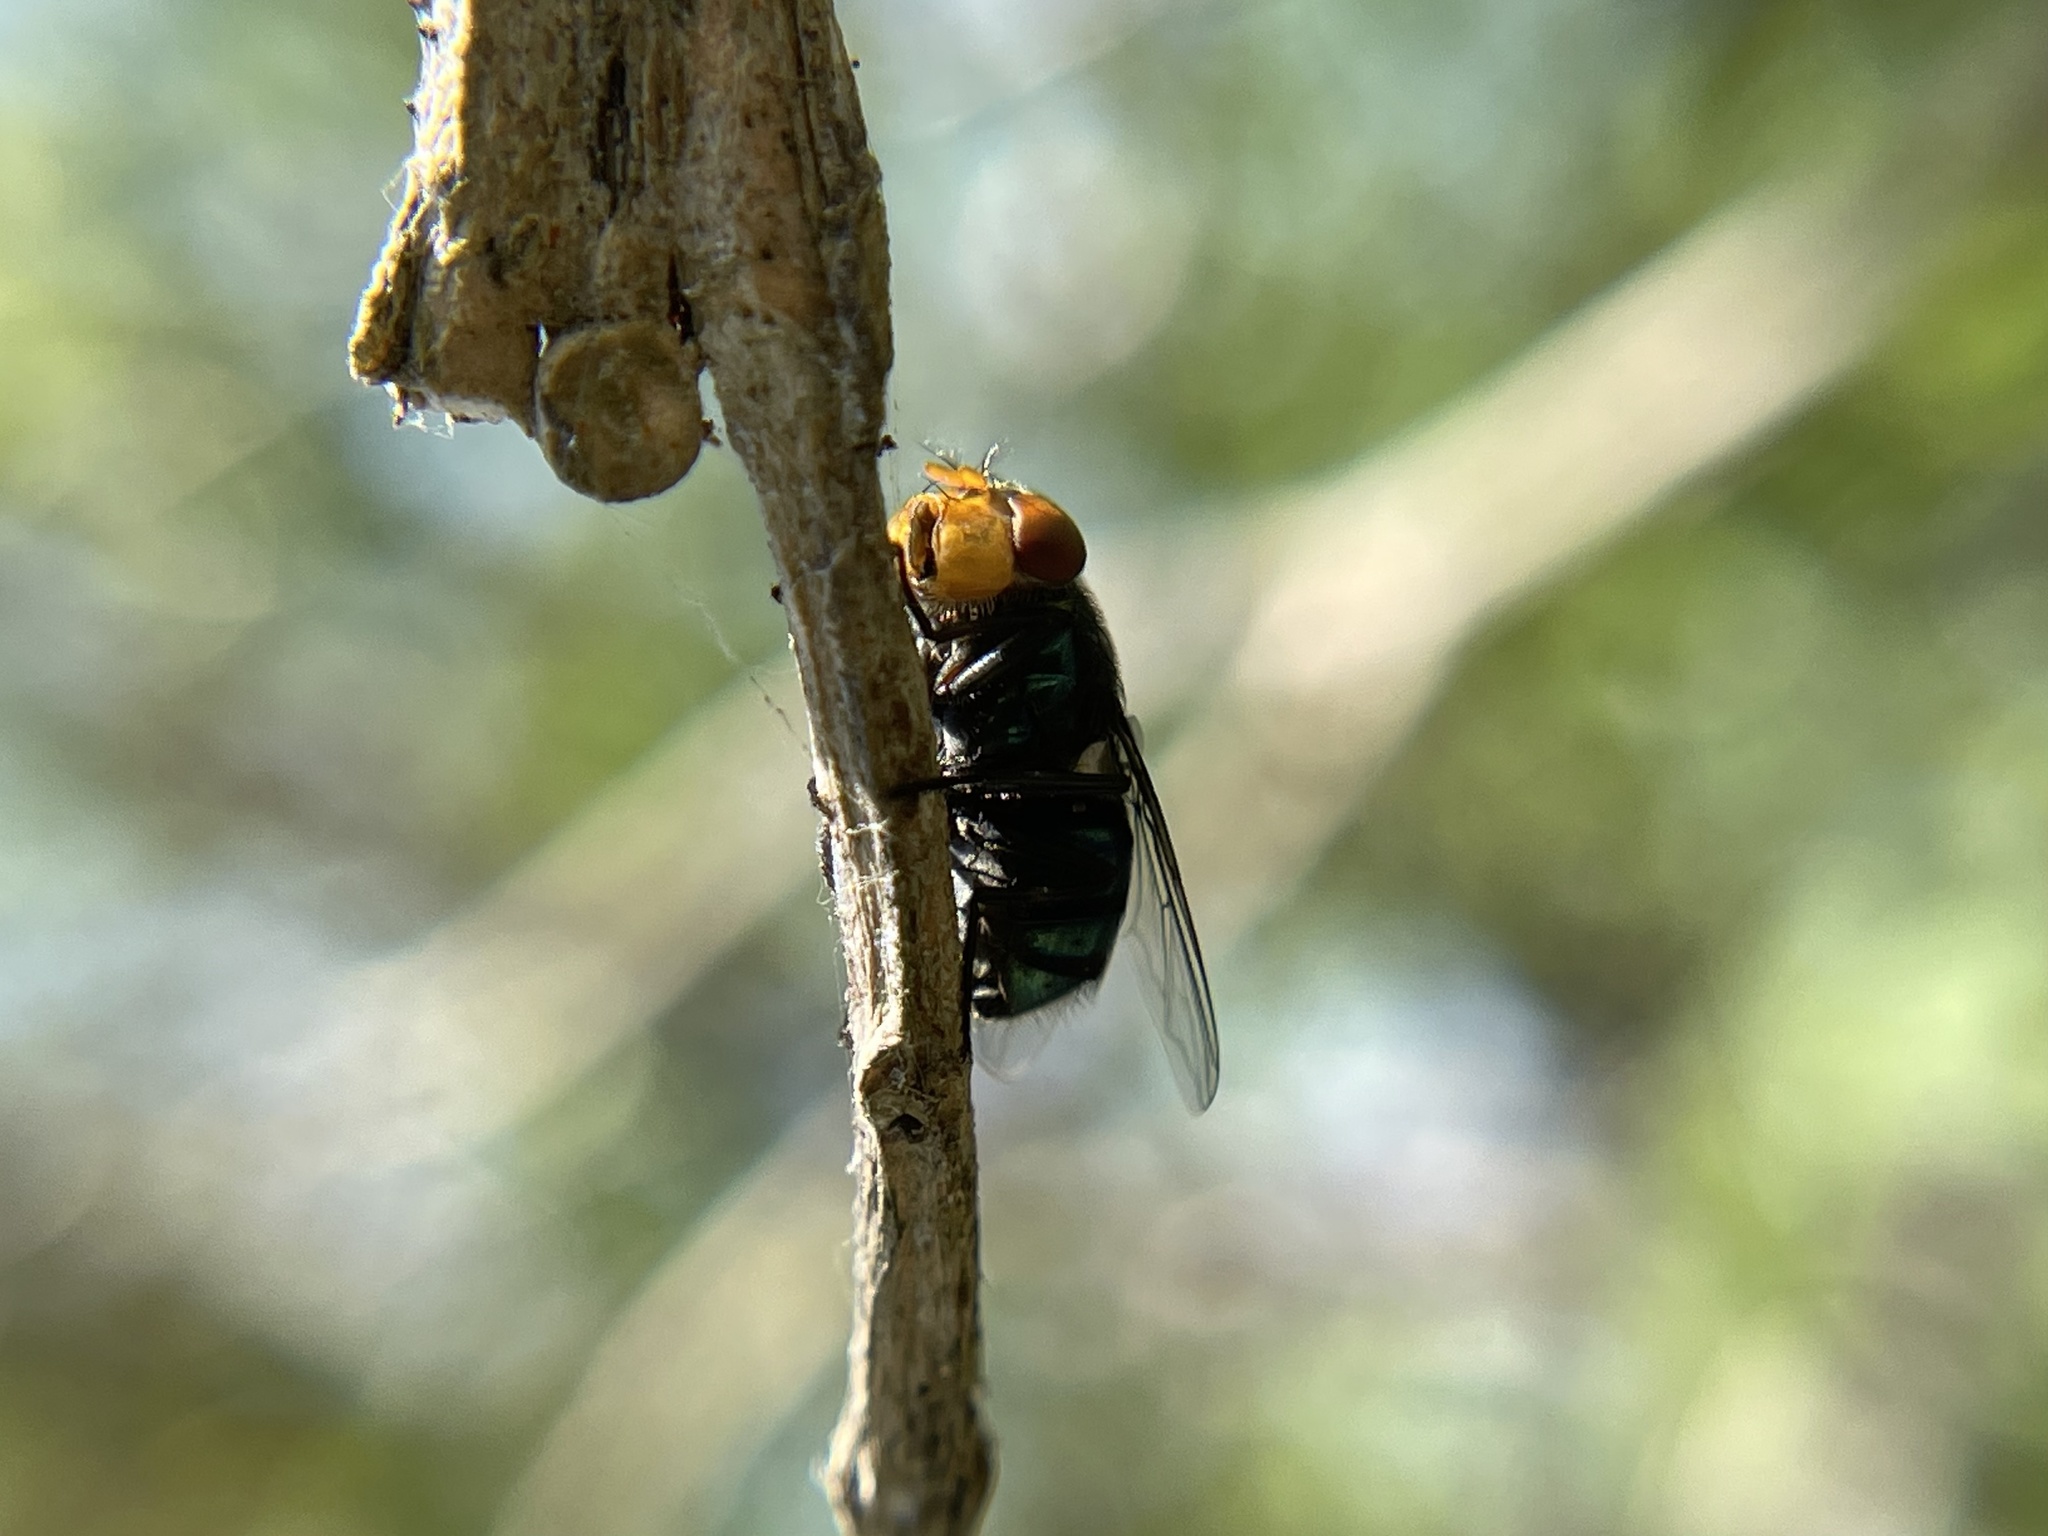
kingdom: Animalia
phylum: Arthropoda
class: Insecta
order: Diptera
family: Calliphoridae
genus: Chrysomya
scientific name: Chrysomya megacephala
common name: Blow fly
